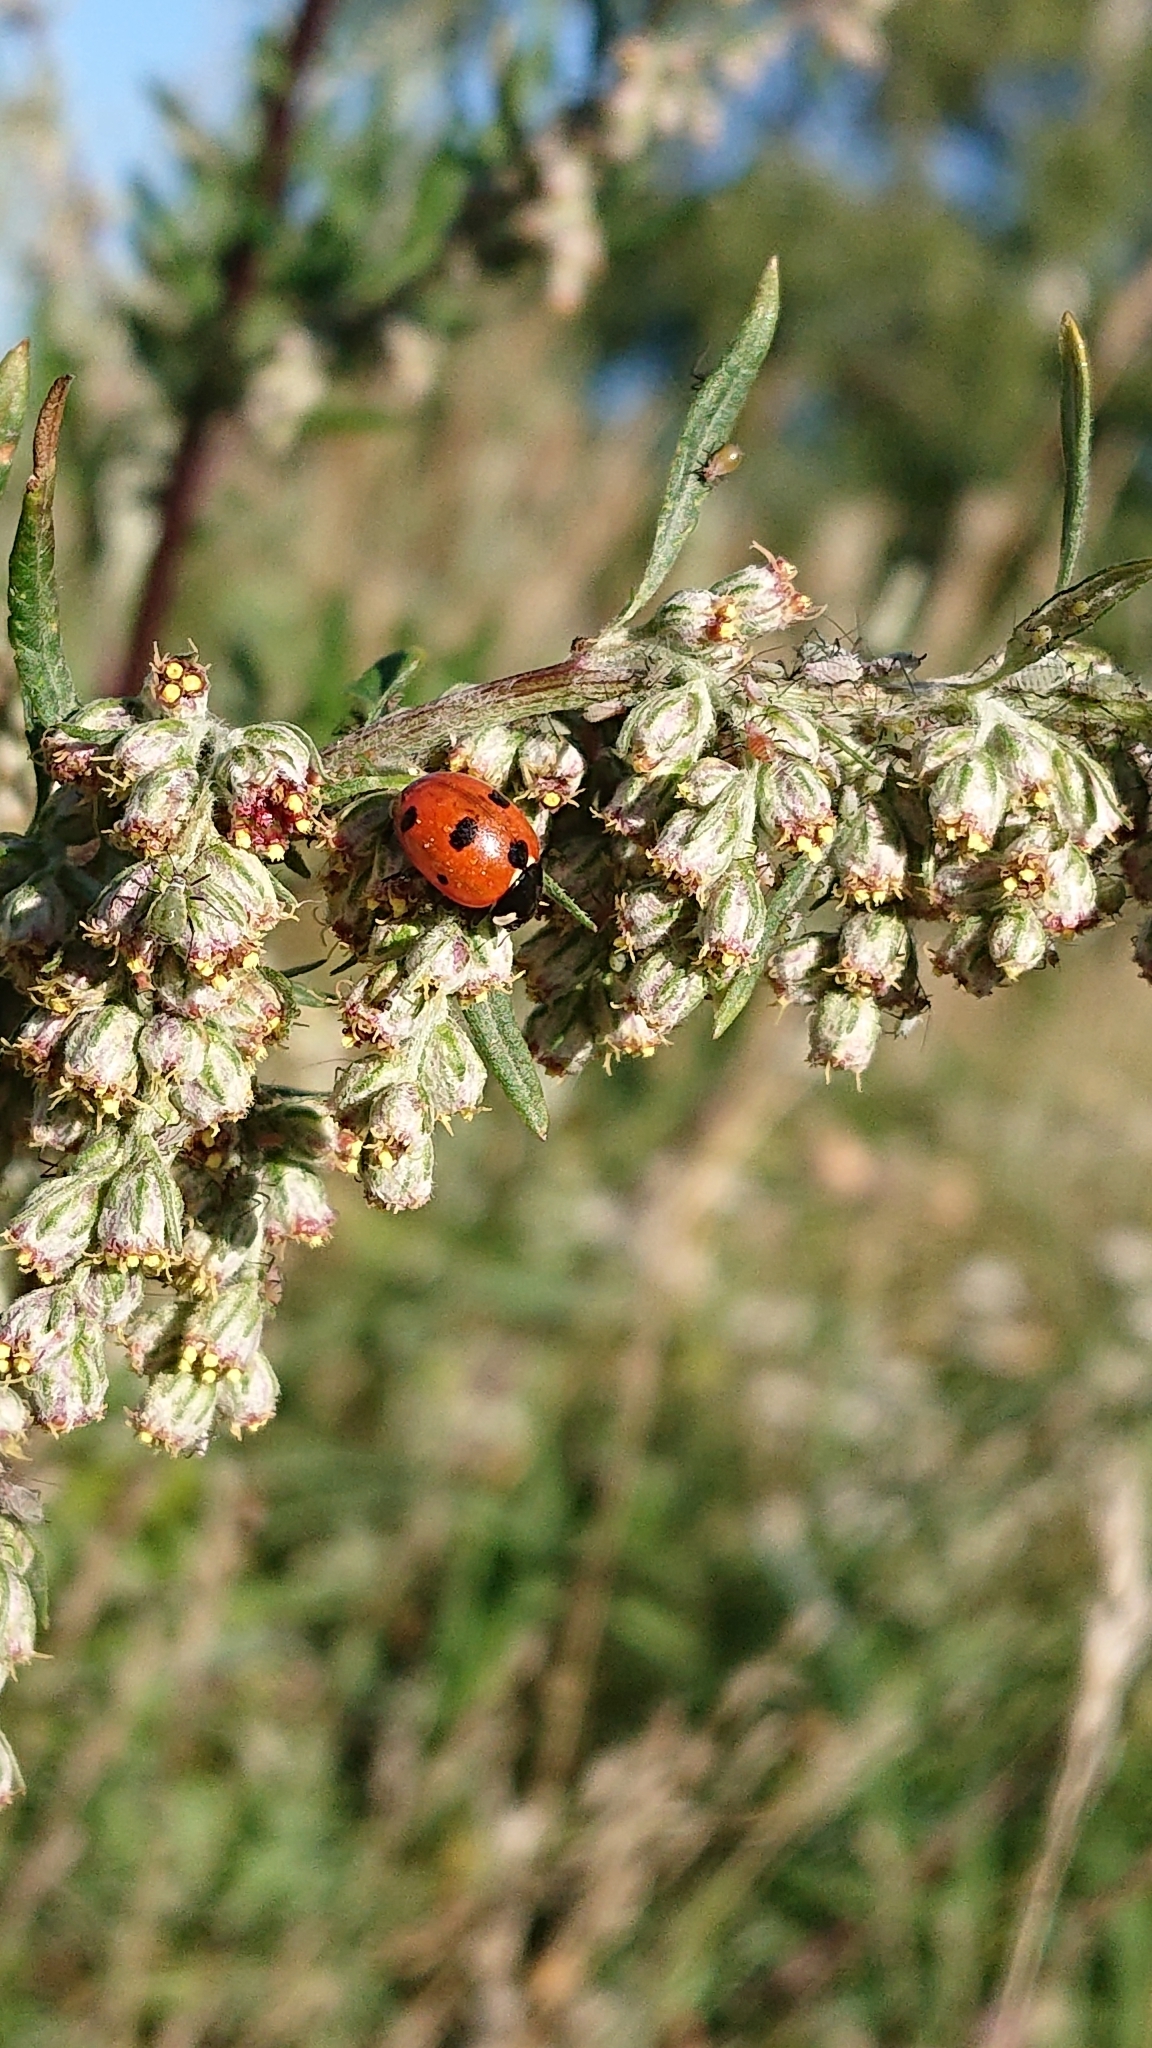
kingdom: Animalia
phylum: Arthropoda
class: Insecta
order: Coleoptera
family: Coccinellidae
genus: Coccinella
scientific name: Coccinella septempunctata
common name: Sevenspotted lady beetle
